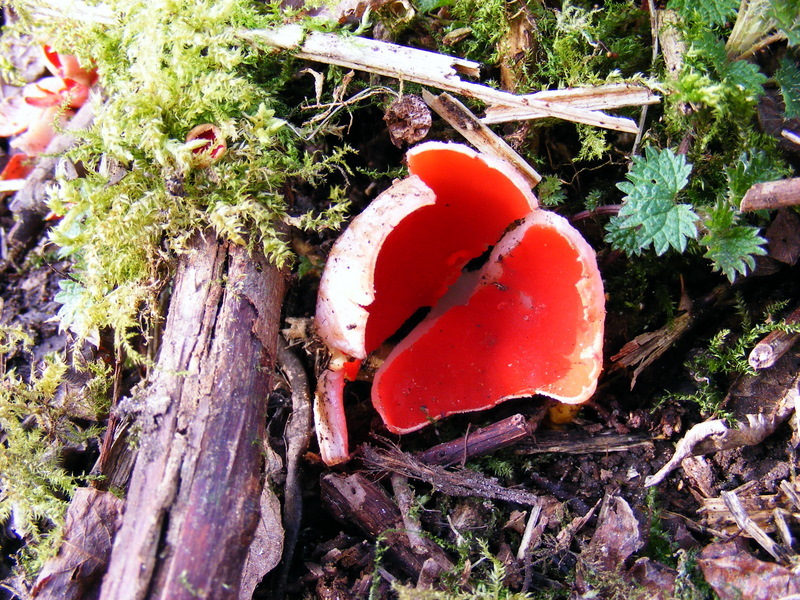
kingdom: Fungi
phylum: Ascomycota
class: Pezizomycetes
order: Pezizales
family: Sarcoscyphaceae
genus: Sarcoscypha
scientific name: Sarcoscypha
